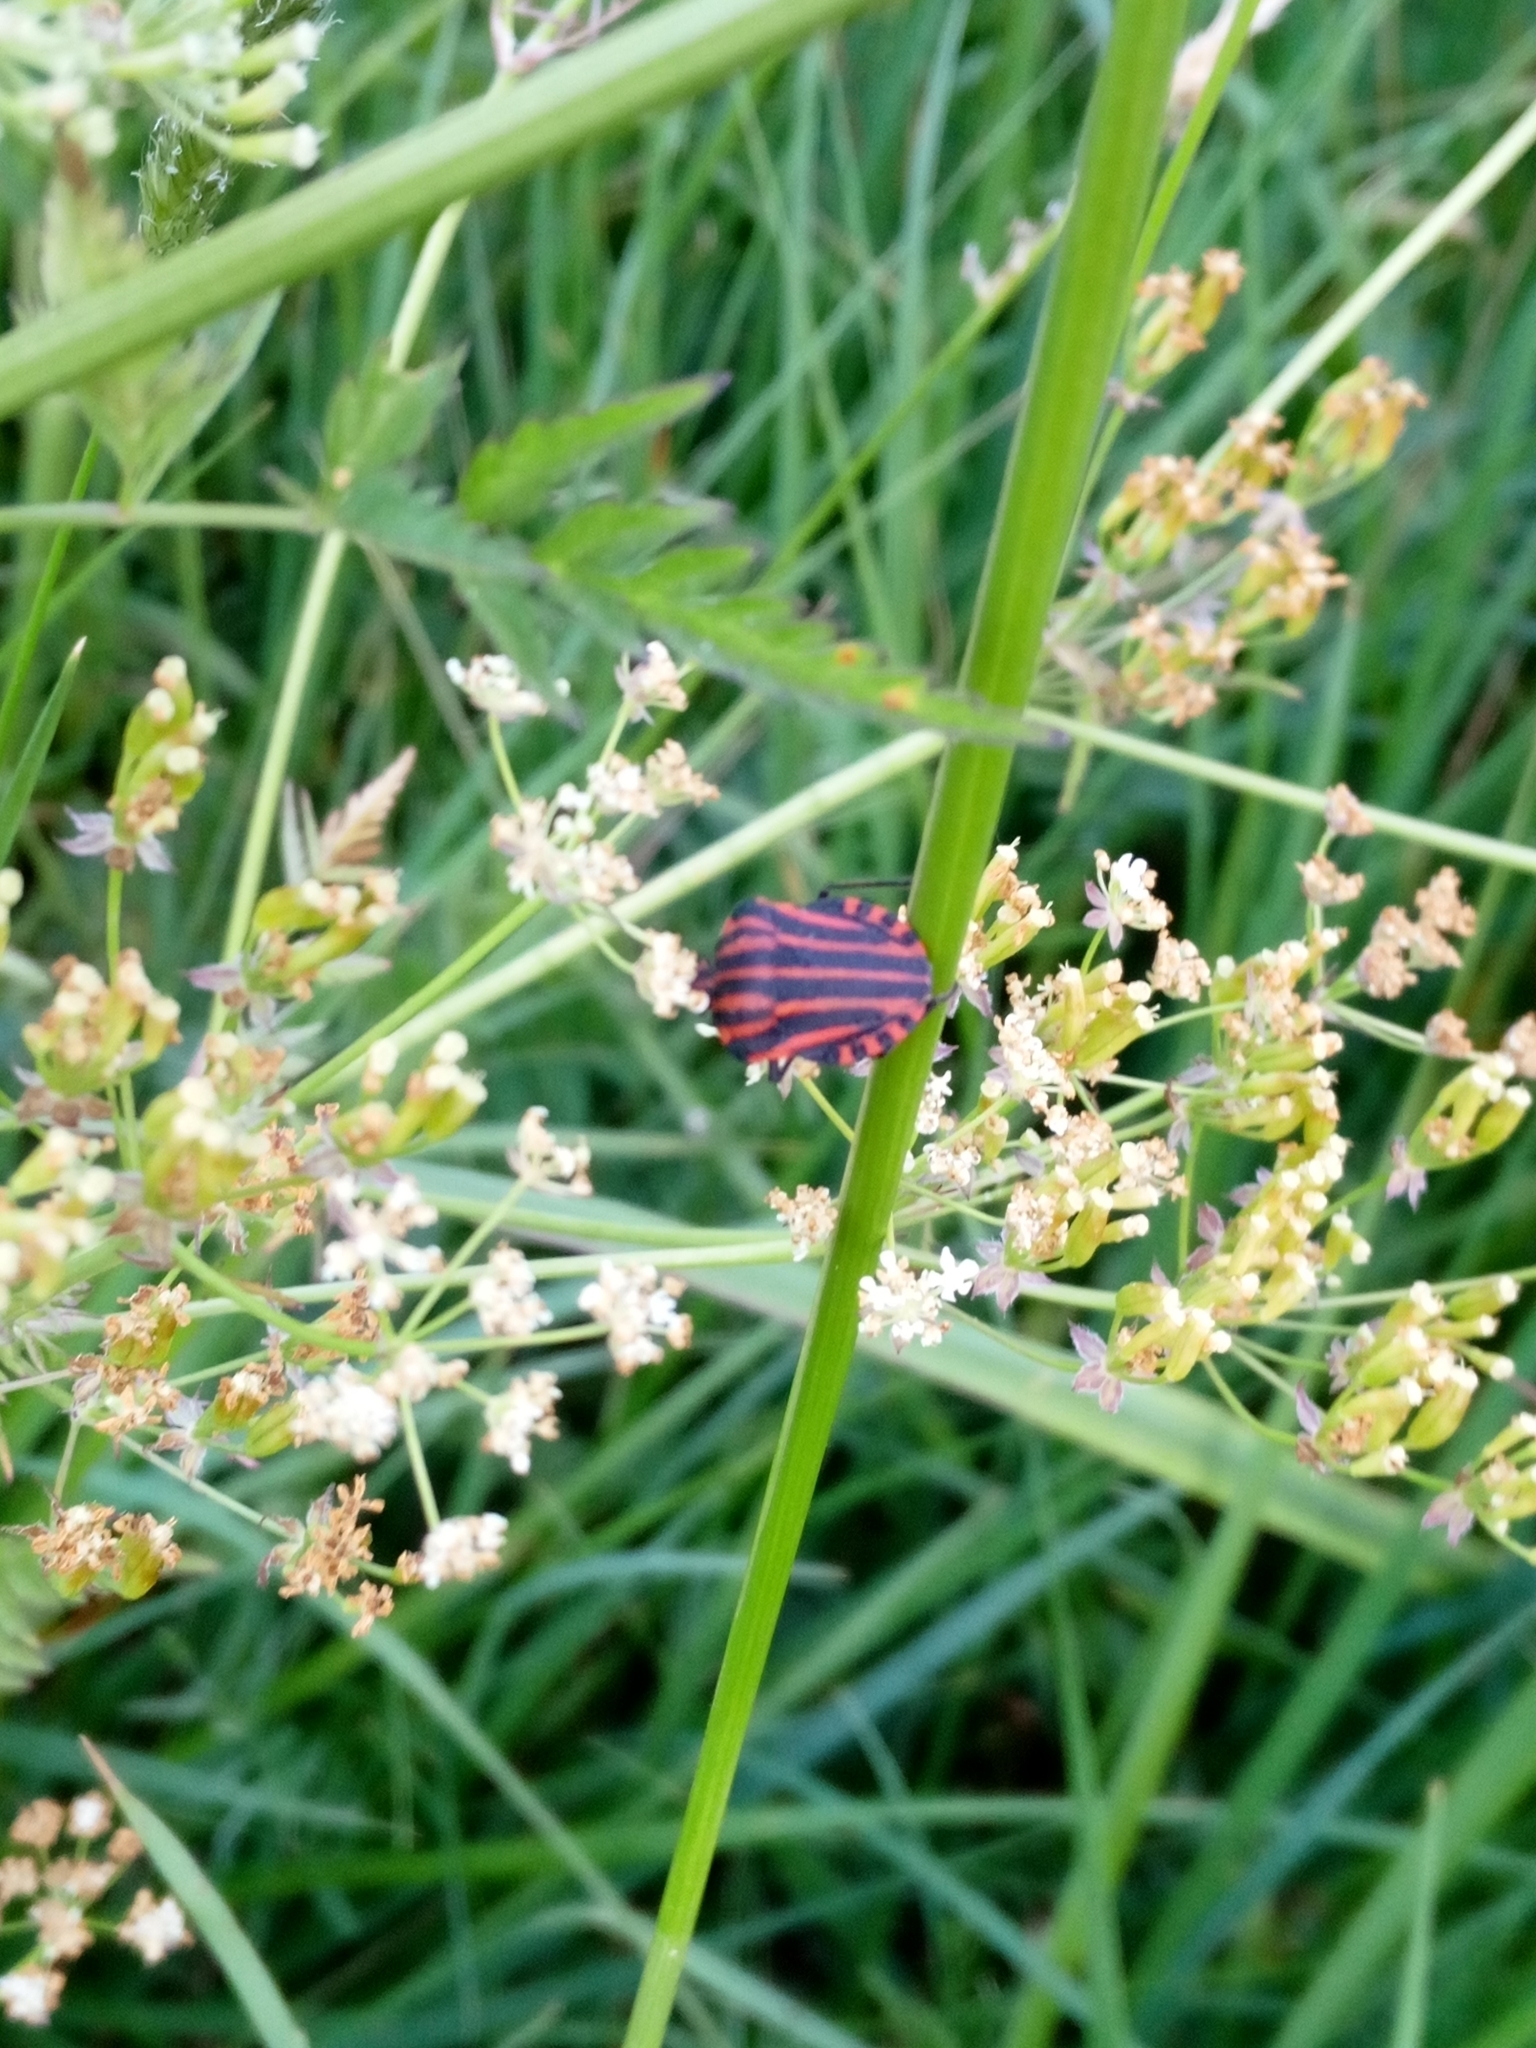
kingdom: Animalia
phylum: Arthropoda
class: Insecta
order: Hemiptera
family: Pentatomidae
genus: Graphosoma
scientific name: Graphosoma italicum
